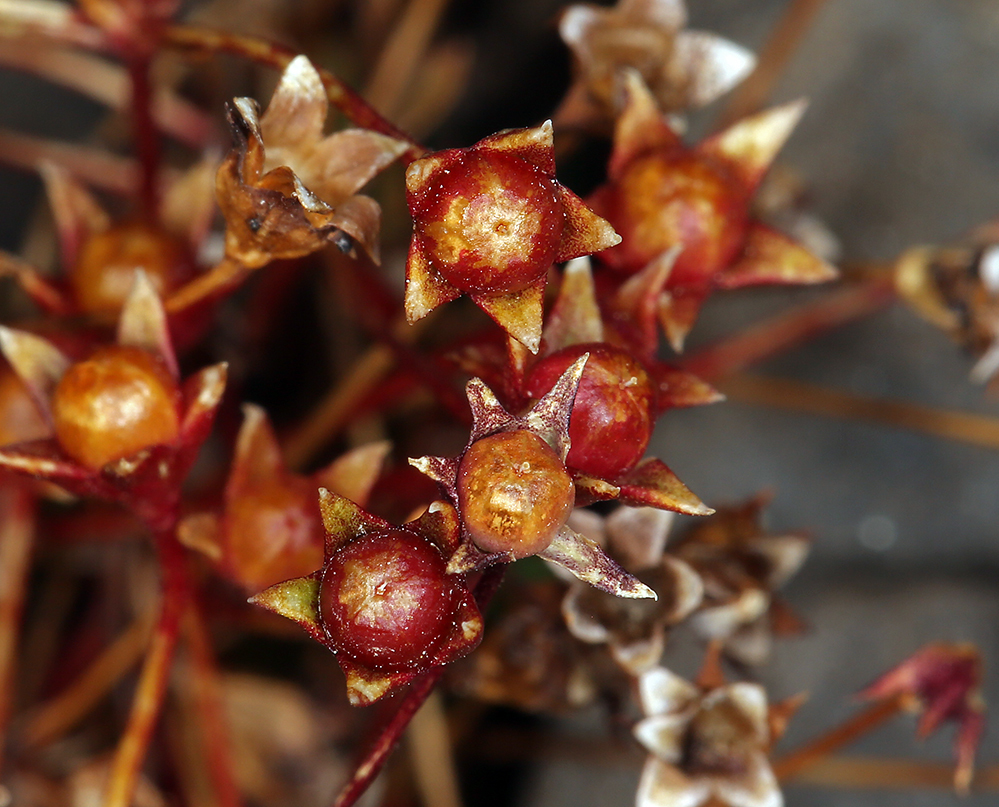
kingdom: Plantae
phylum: Tracheophyta
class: Magnoliopsida
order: Ericales
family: Primulaceae
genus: Androsace
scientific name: Androsace septentrionalis
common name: Hairy northern fairy-candelabra
